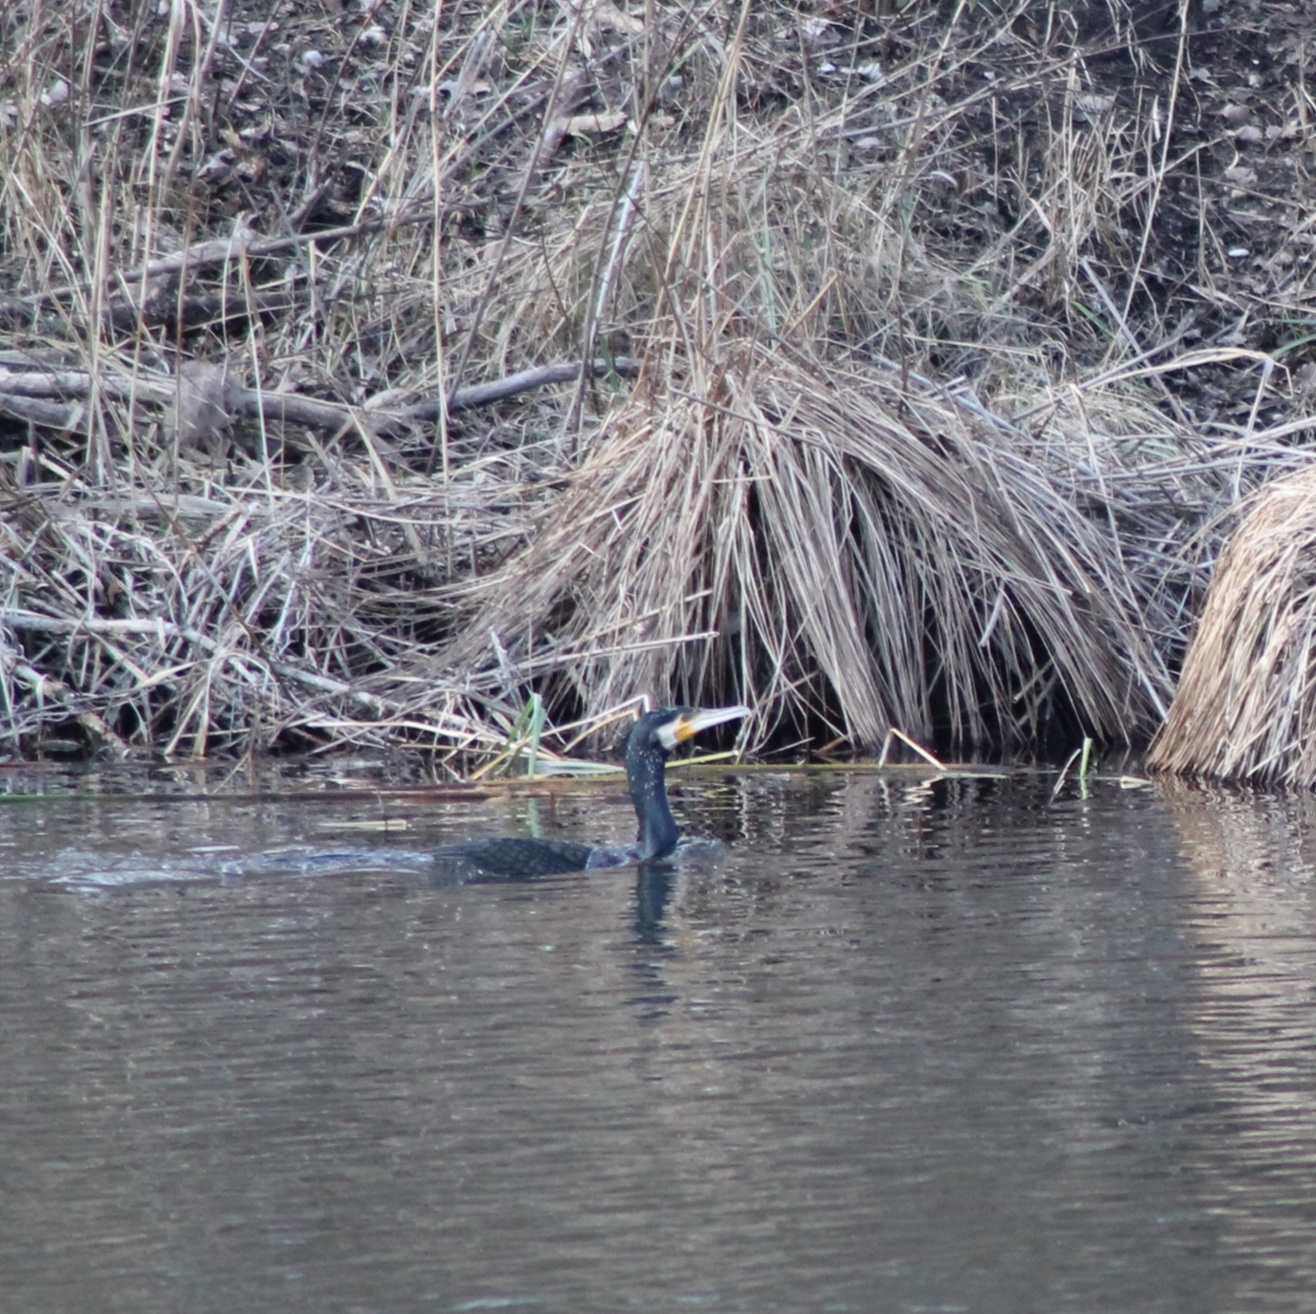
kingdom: Animalia
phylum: Chordata
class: Aves
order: Suliformes
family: Phalacrocoracidae
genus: Phalacrocorax
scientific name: Phalacrocorax carbo
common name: Great cormorant
